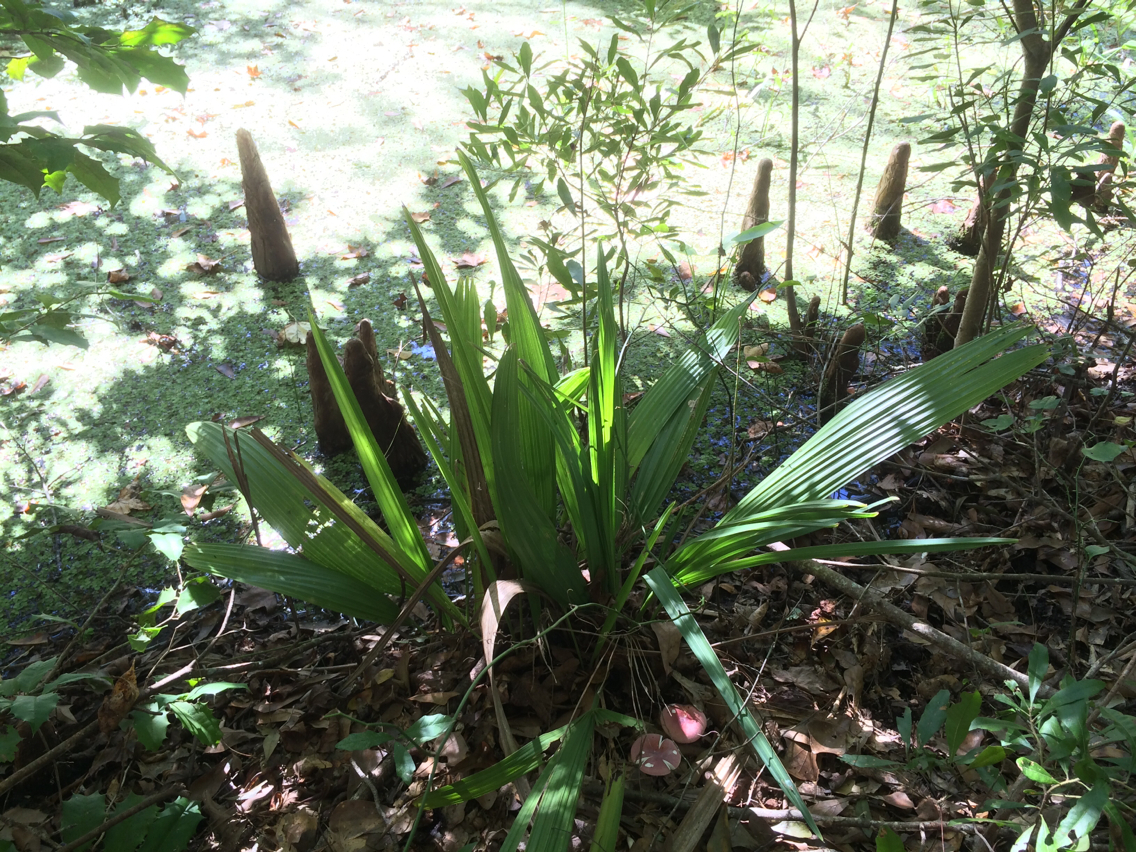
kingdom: Plantae
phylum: Tracheophyta
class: Liliopsida
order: Arecales
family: Arecaceae
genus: Sabal
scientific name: Sabal minor
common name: Dwarf palmetto
